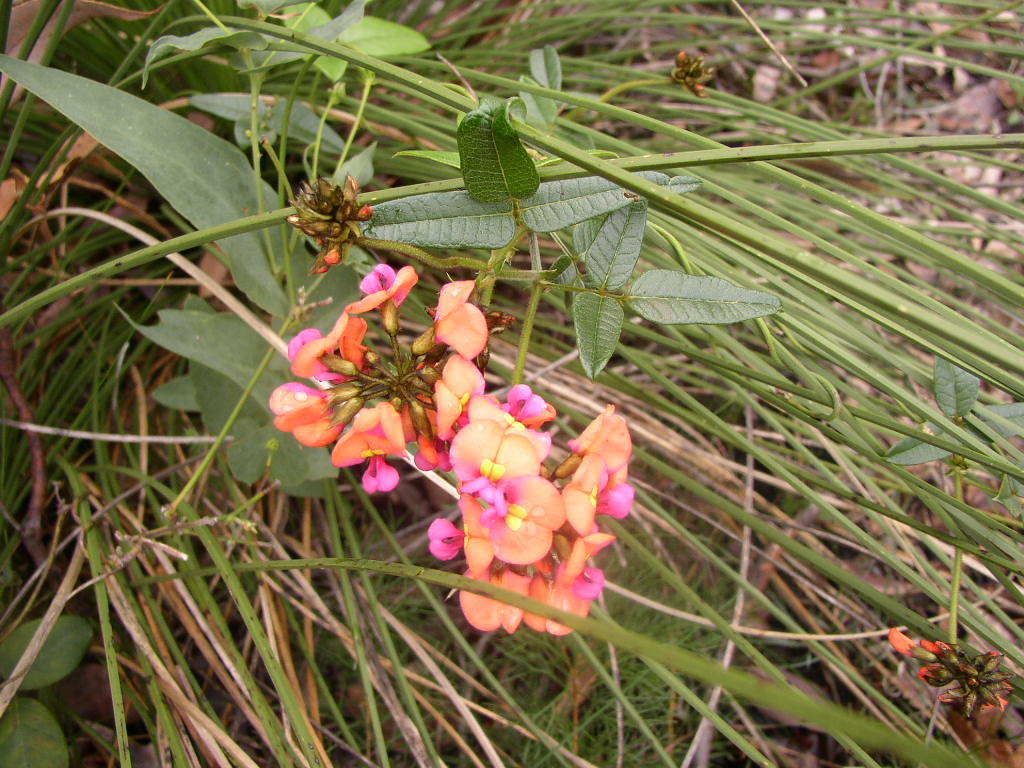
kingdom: Plantae
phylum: Tracheophyta
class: Magnoliopsida
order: Fabales
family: Fabaceae
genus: Kennedia
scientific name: Kennedia coccinea
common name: Coralvine
